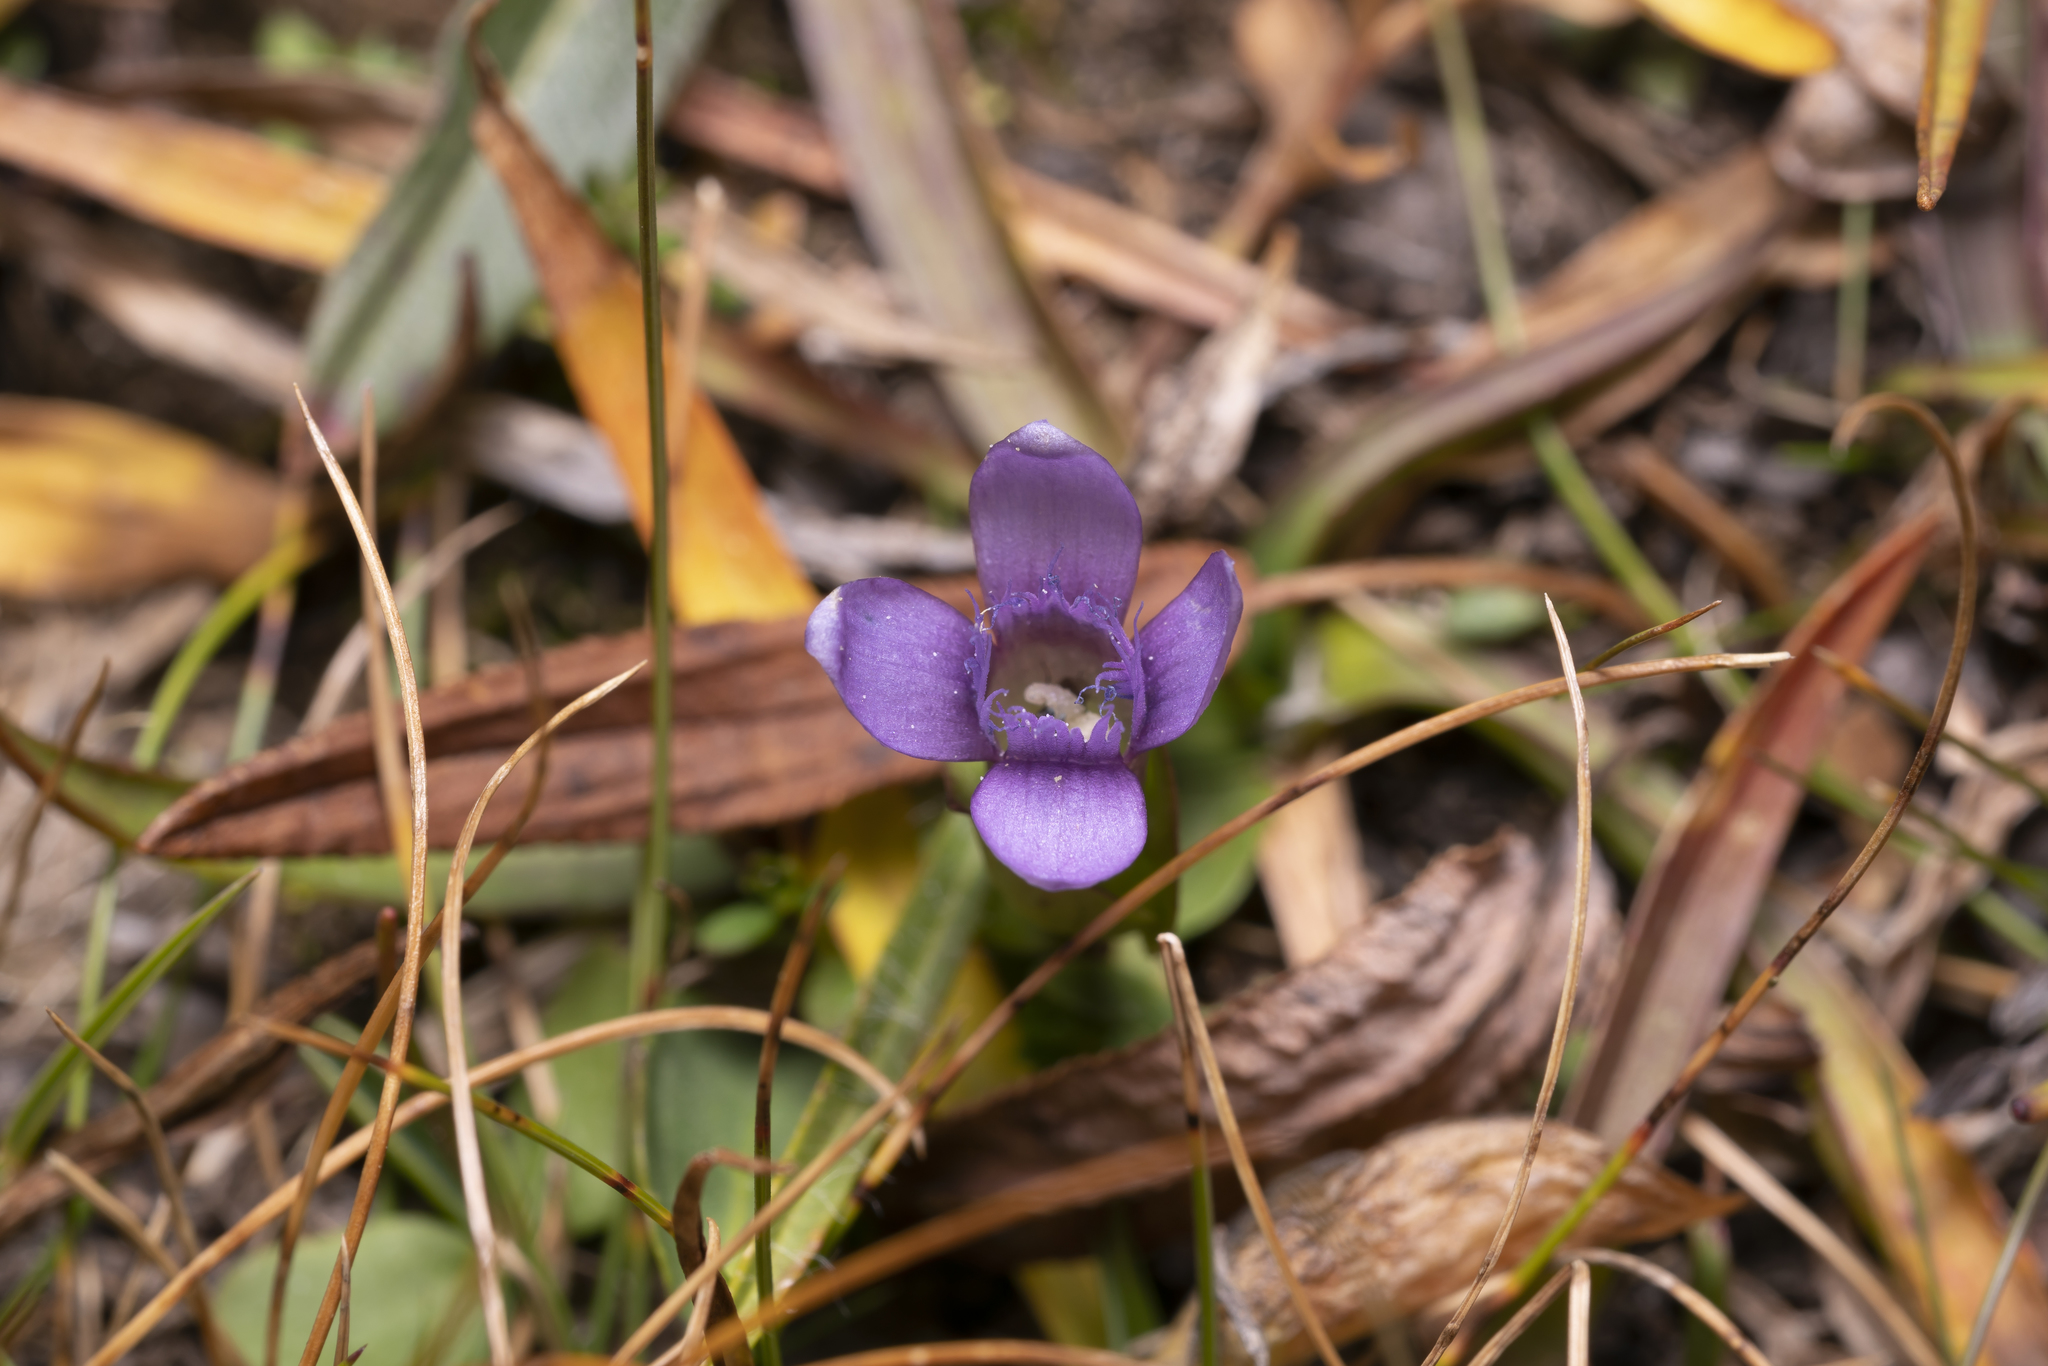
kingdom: Plantae
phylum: Tracheophyta
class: Magnoliopsida
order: Gentianales
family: Gentianaceae
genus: Gentianella
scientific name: Gentianella campestris
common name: Field gentian
